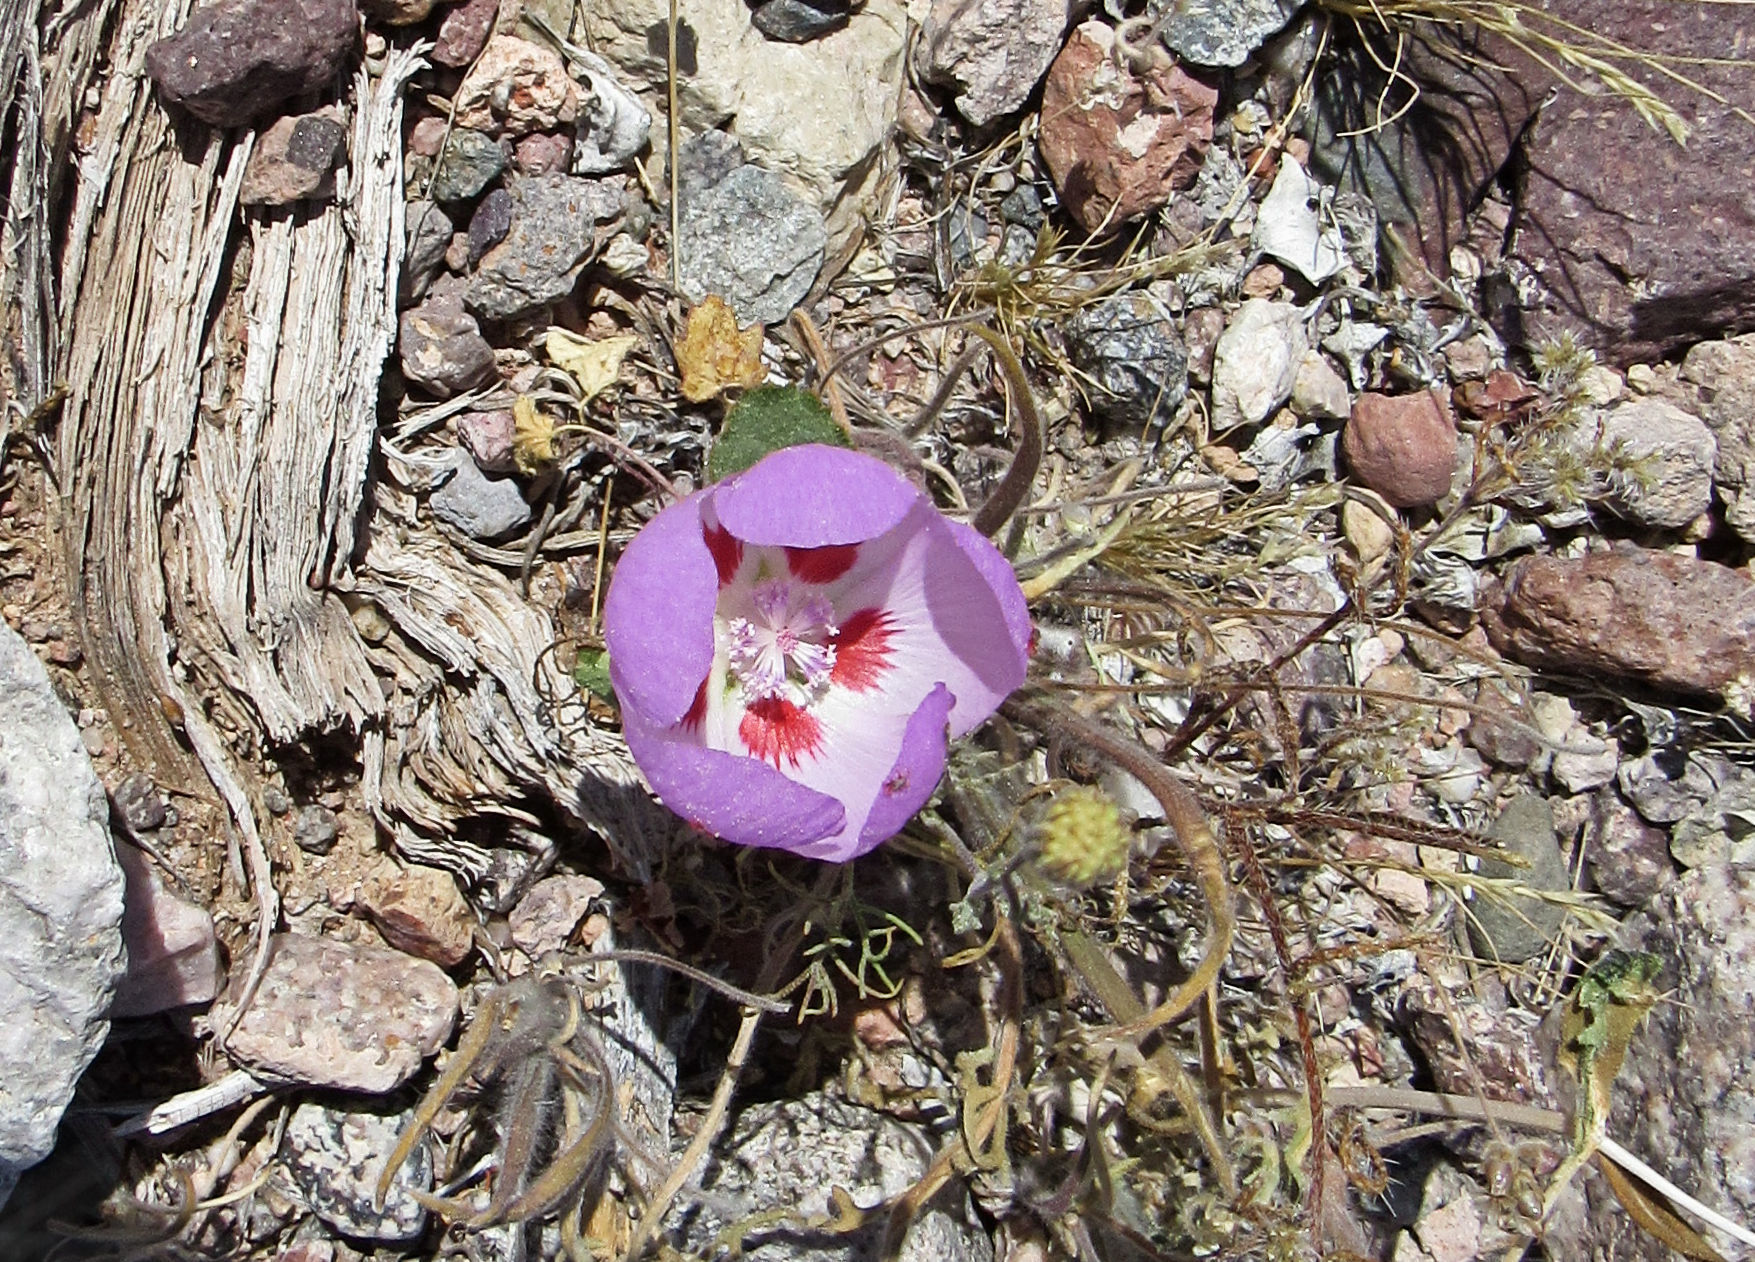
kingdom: Plantae
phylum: Tracheophyta
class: Magnoliopsida
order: Malvales
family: Malvaceae
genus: Eremalche
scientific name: Eremalche rotundifolia
